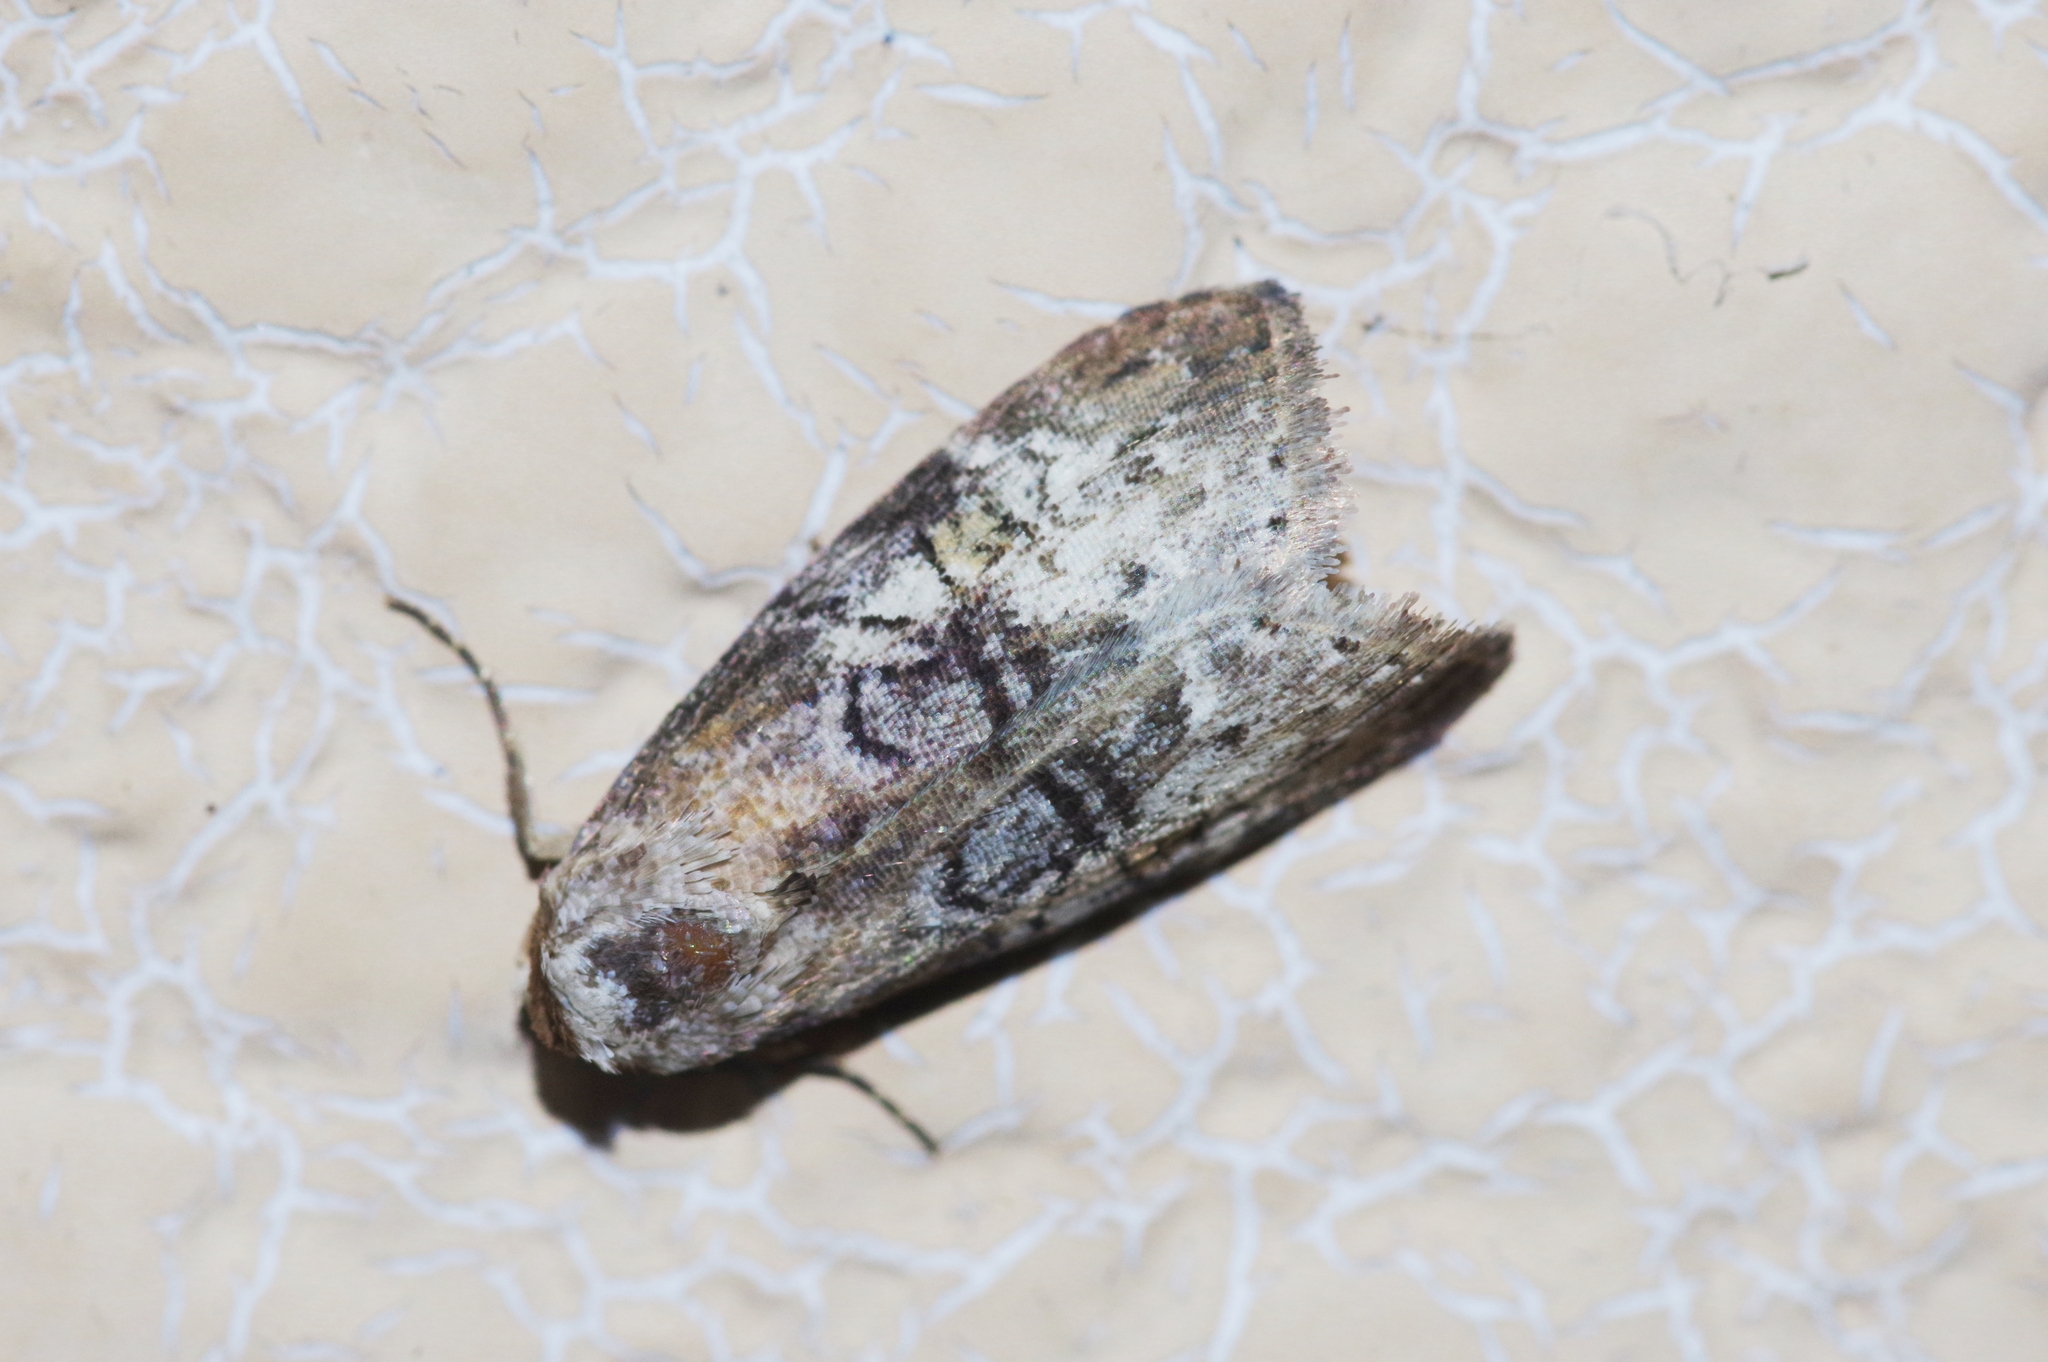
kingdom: Animalia
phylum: Arthropoda
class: Insecta
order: Lepidoptera
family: Erebidae
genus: Chorsia
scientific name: Chorsia mollicula
